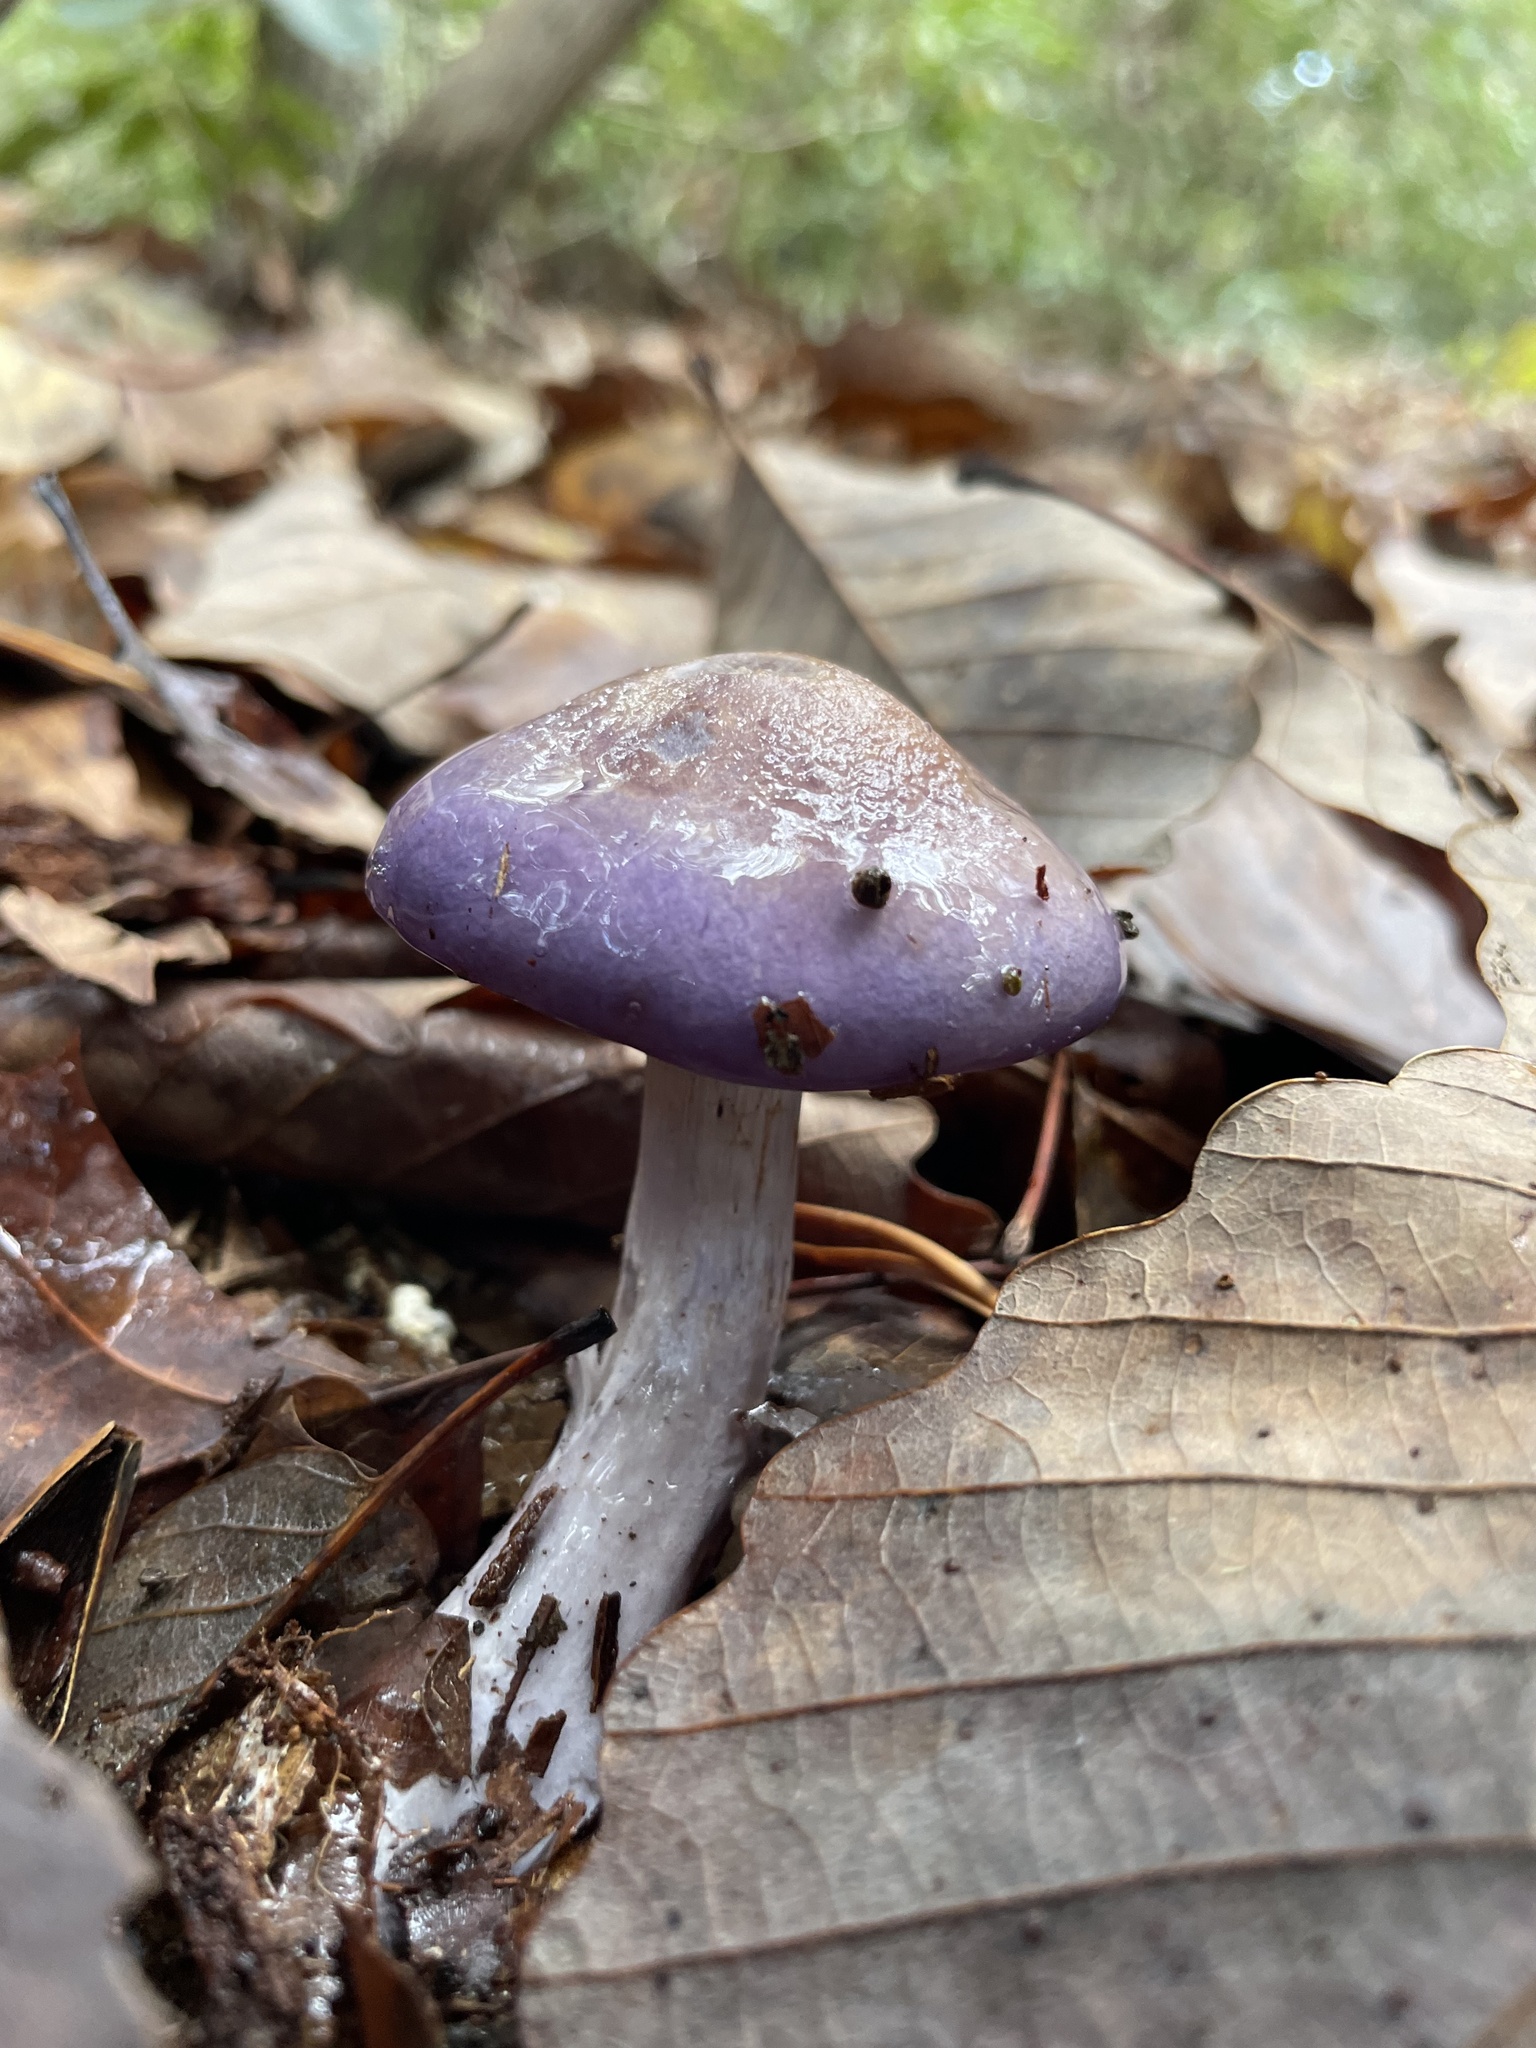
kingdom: Fungi
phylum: Basidiomycota
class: Agaricomycetes
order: Agaricales
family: Cortinariaceae
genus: Cortinarius
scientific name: Cortinarius iodes
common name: Viscid violet cort
